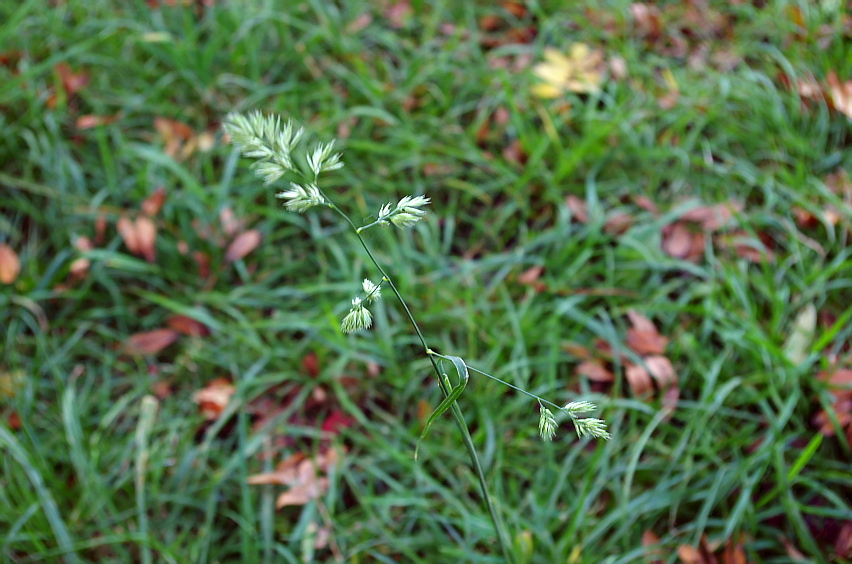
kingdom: Plantae
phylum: Tracheophyta
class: Liliopsida
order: Poales
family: Poaceae
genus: Dactylis
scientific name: Dactylis glomerata
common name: Orchardgrass
